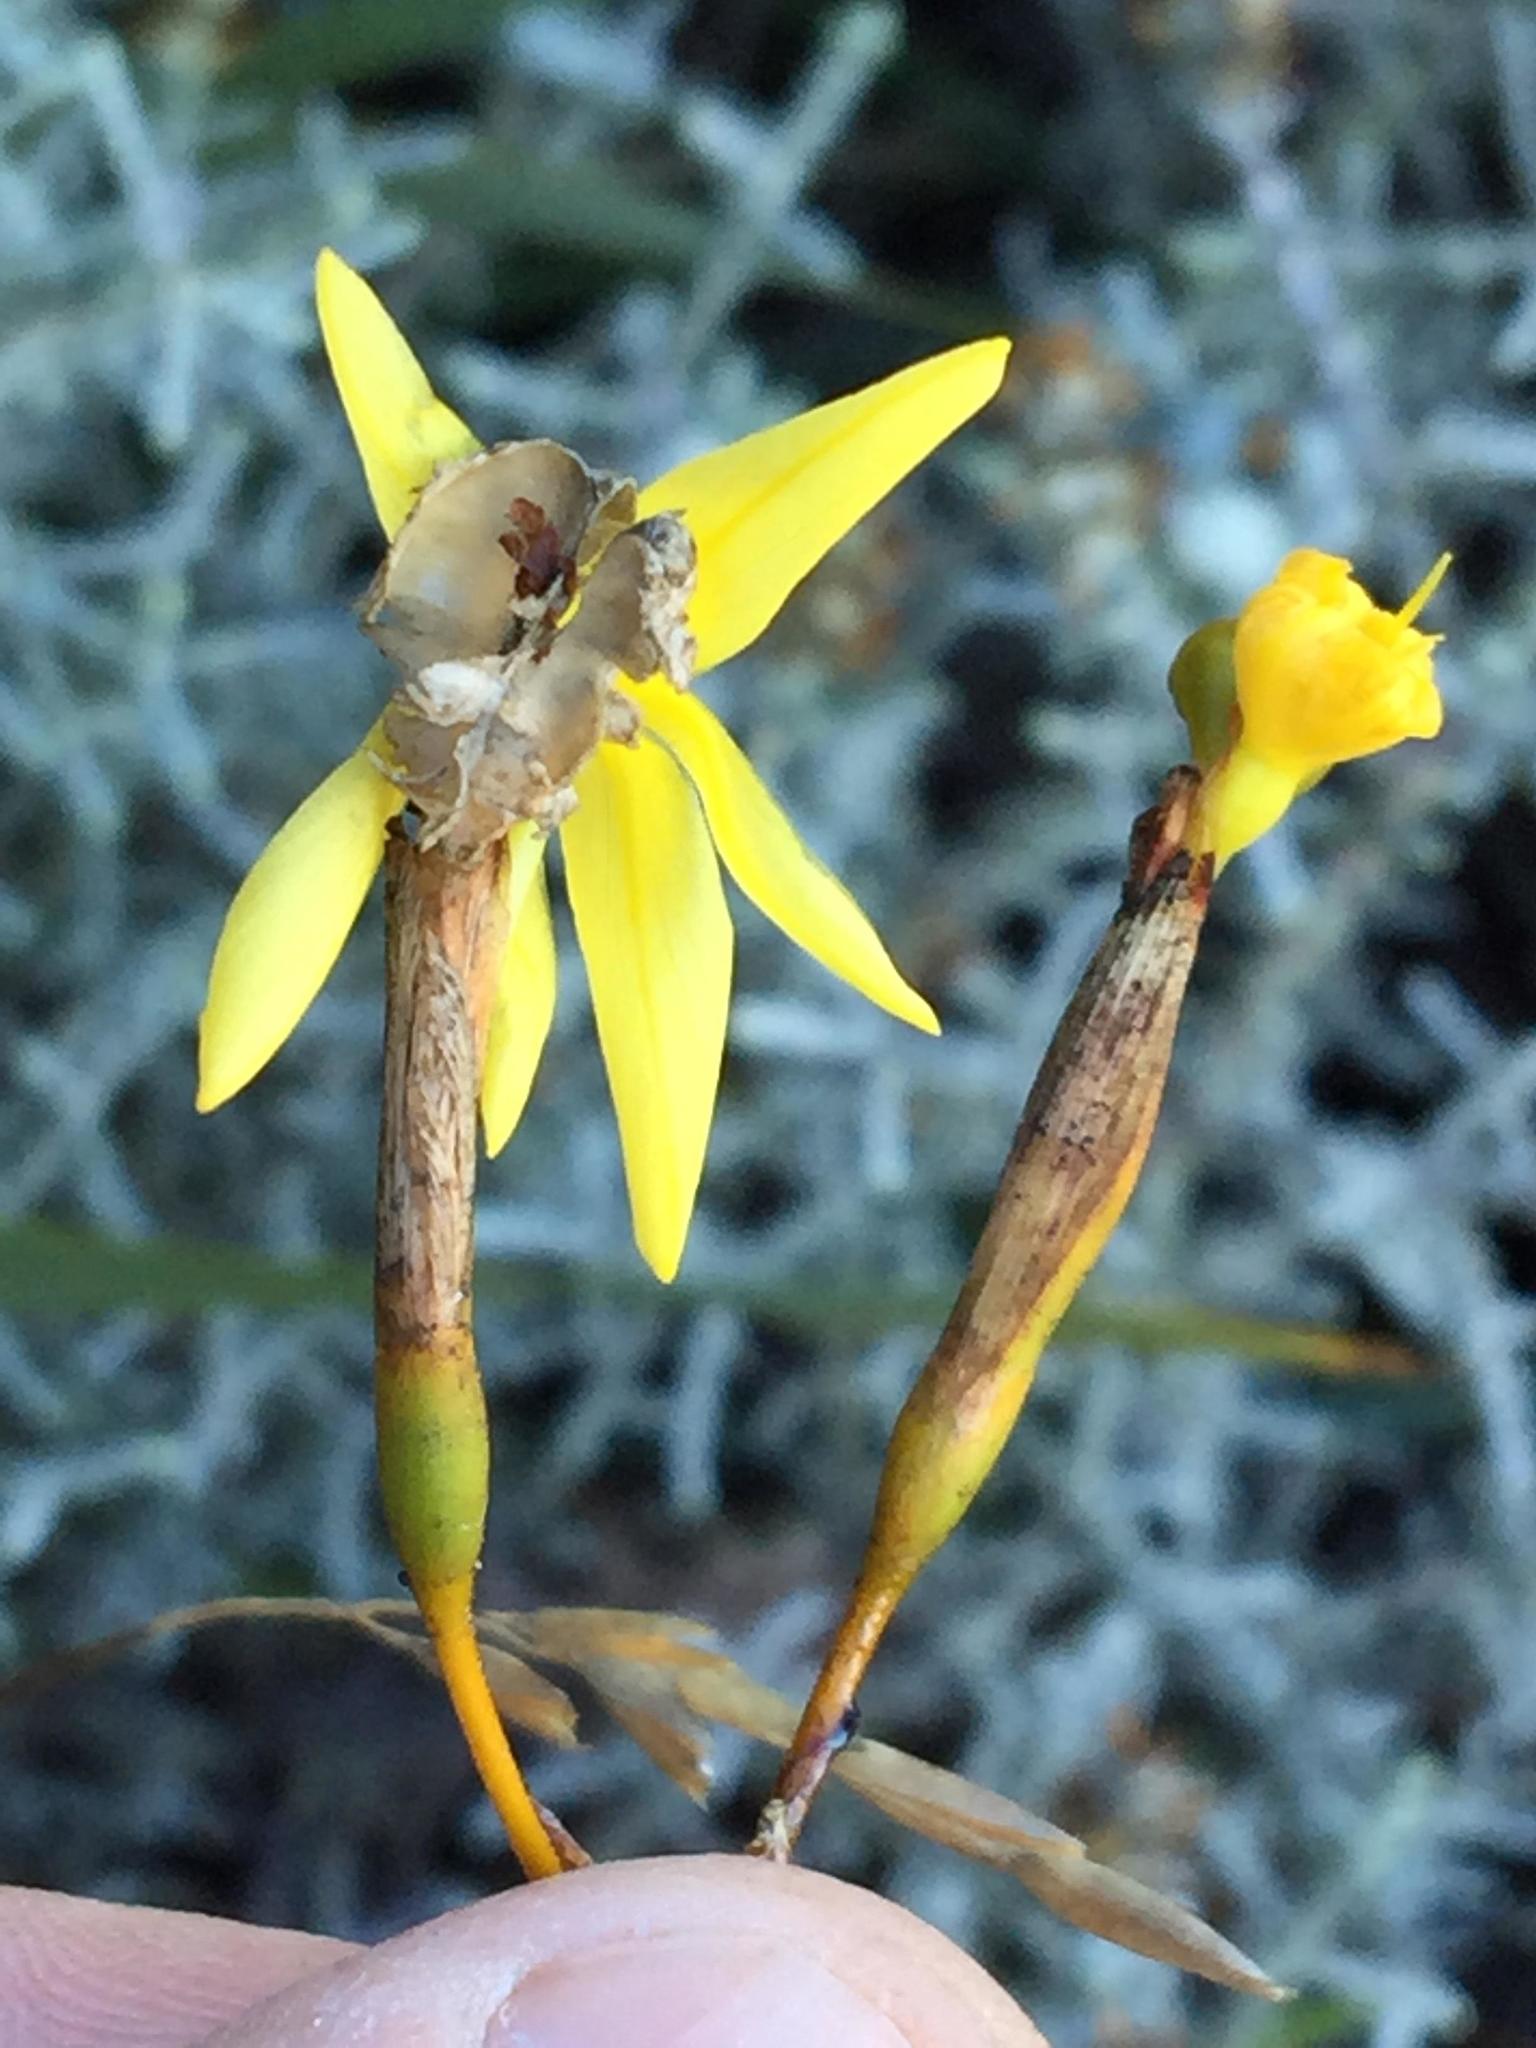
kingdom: Plantae
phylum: Tracheophyta
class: Liliopsida
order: Asparagales
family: Iridaceae
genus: Bobartia
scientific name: Bobartia paniculata
